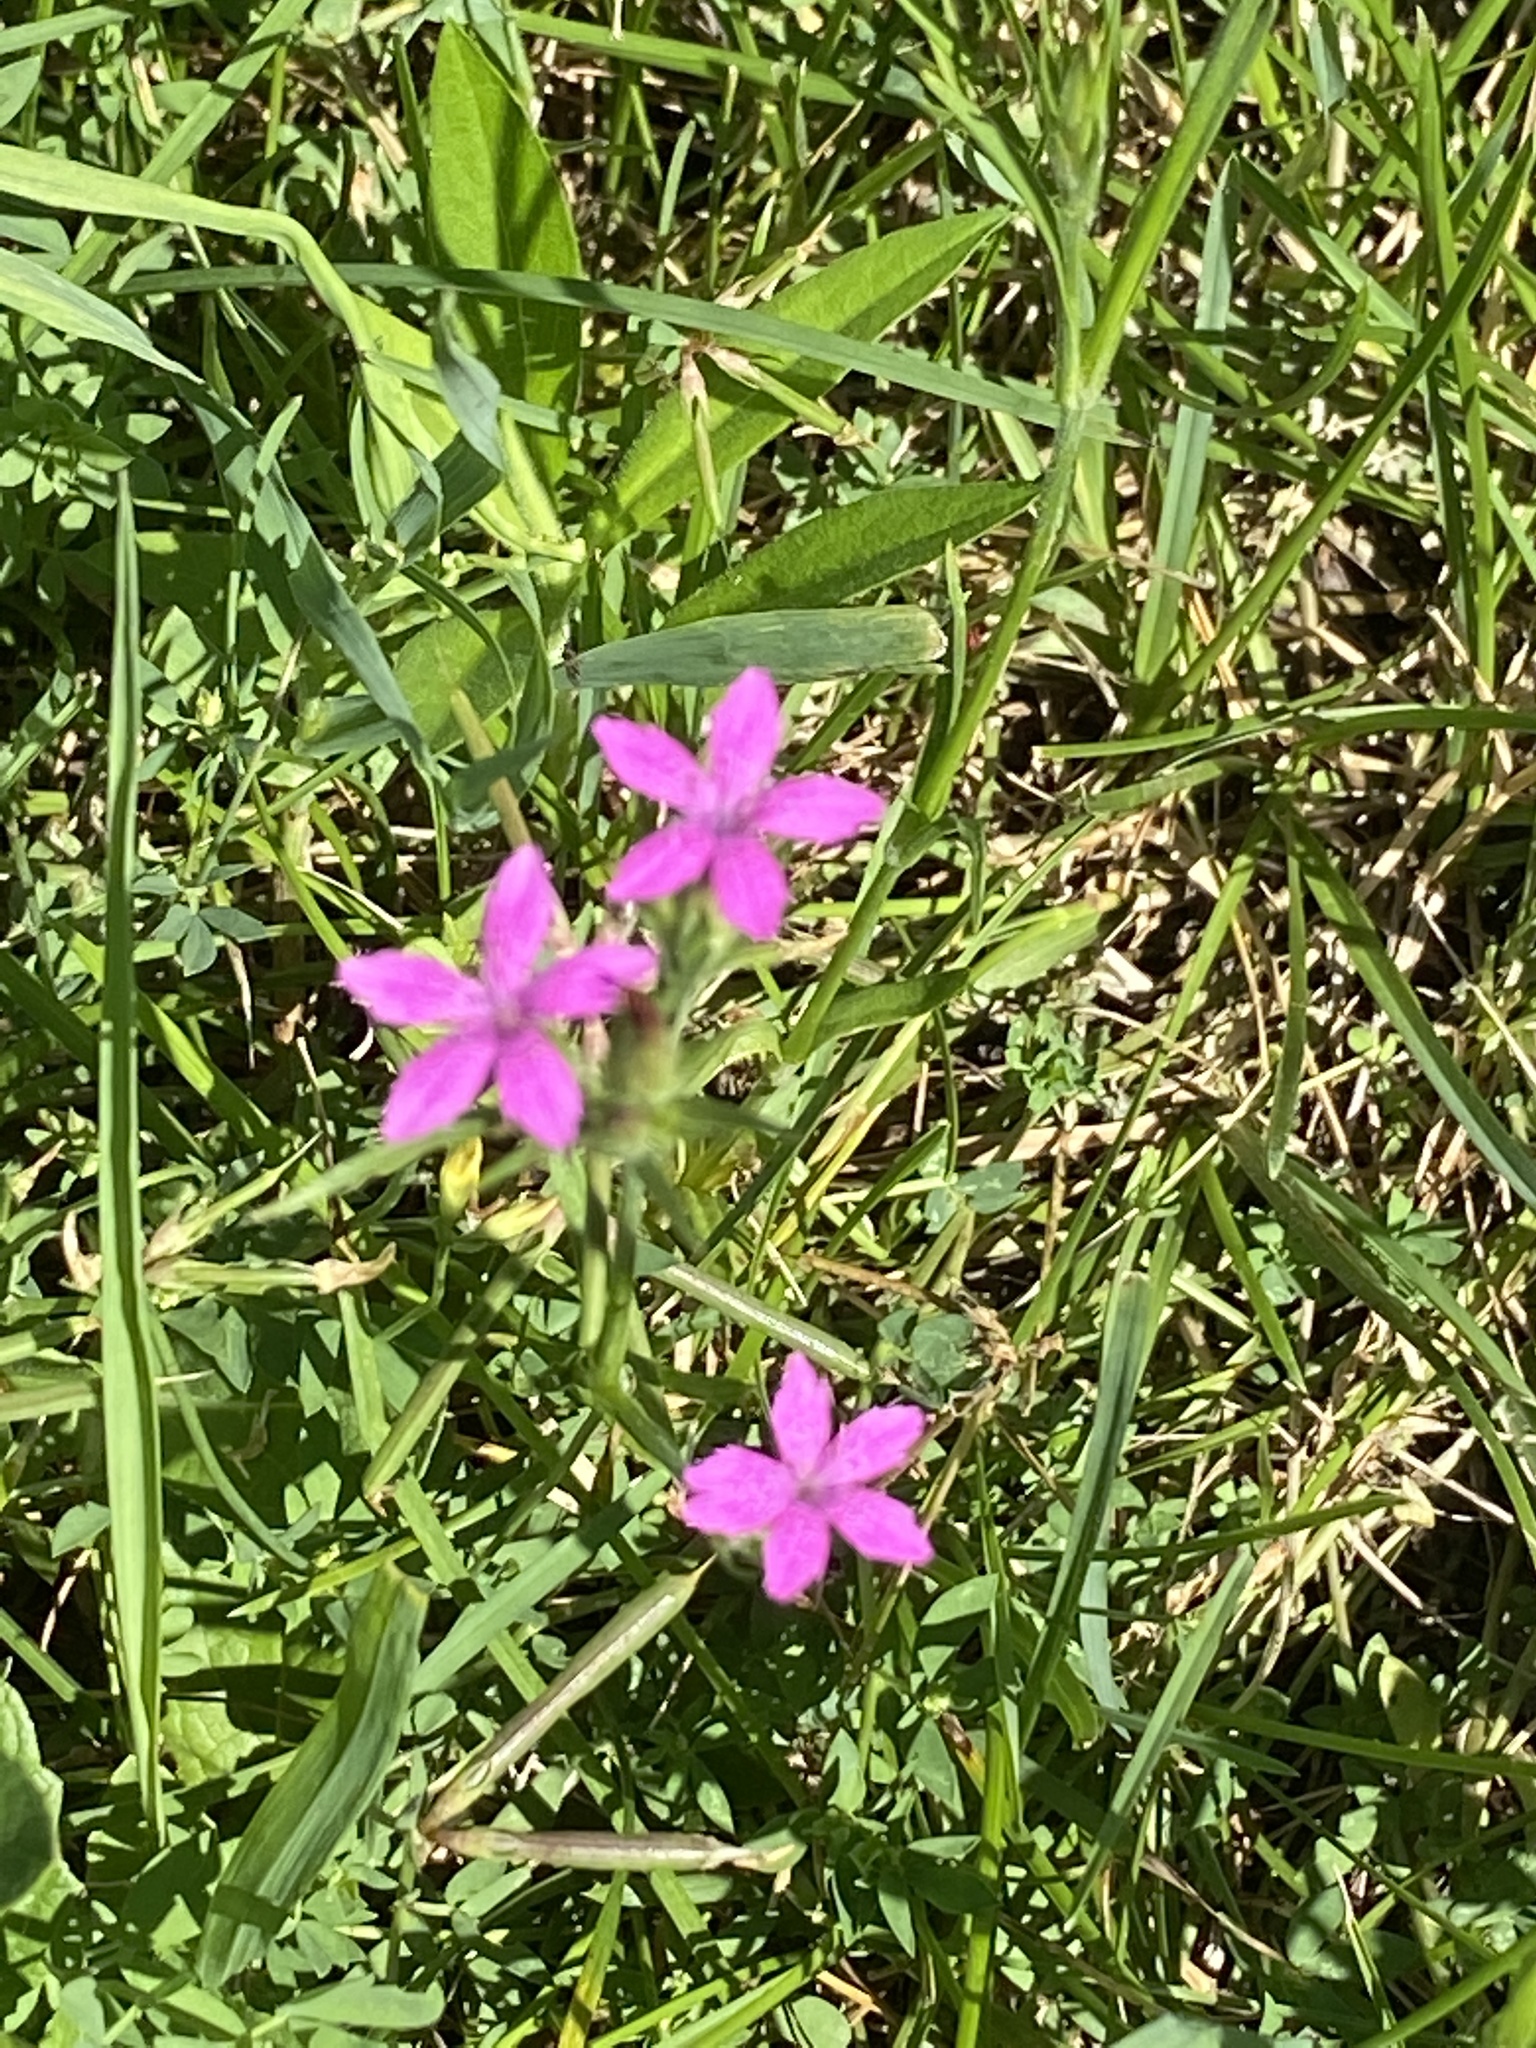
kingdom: Plantae
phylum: Tracheophyta
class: Magnoliopsida
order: Caryophyllales
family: Caryophyllaceae
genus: Dianthus
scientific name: Dianthus armeria
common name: Deptford pink
